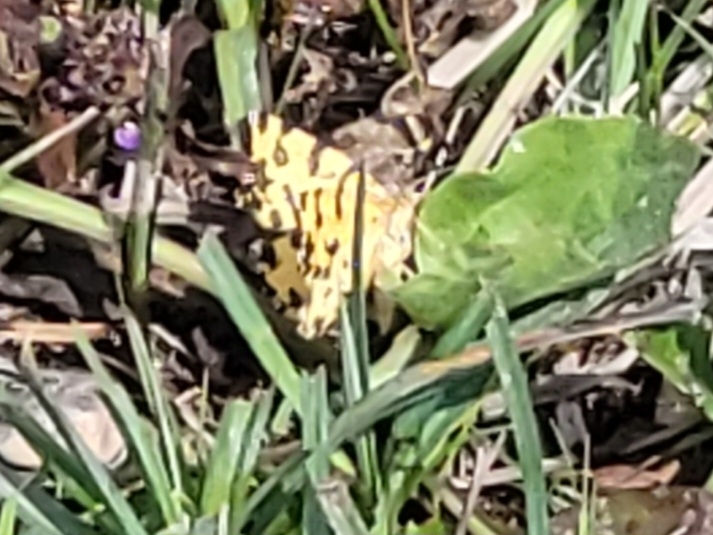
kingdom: Animalia
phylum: Arthropoda
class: Insecta
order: Lepidoptera
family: Geometridae
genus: Pseudopanthera
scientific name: Pseudopanthera macularia
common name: Speckled yellow
